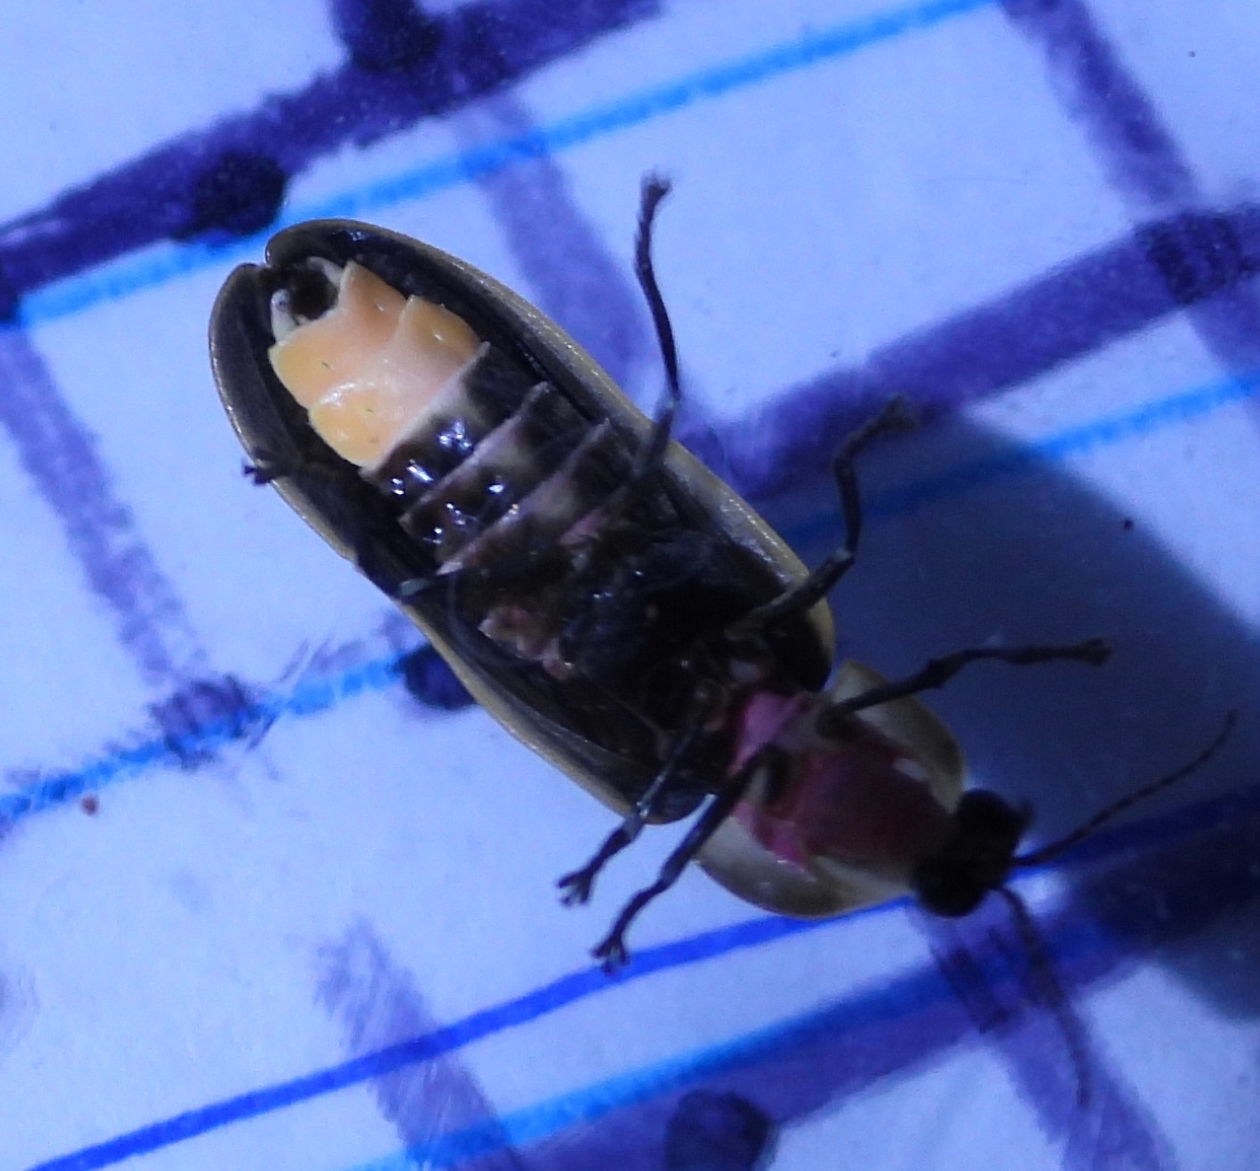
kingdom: Animalia
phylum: Arthropoda
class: Insecta
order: Coleoptera
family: Lampyridae
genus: Pyractomena
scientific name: Pyractomena borealis
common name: Northern firefly
